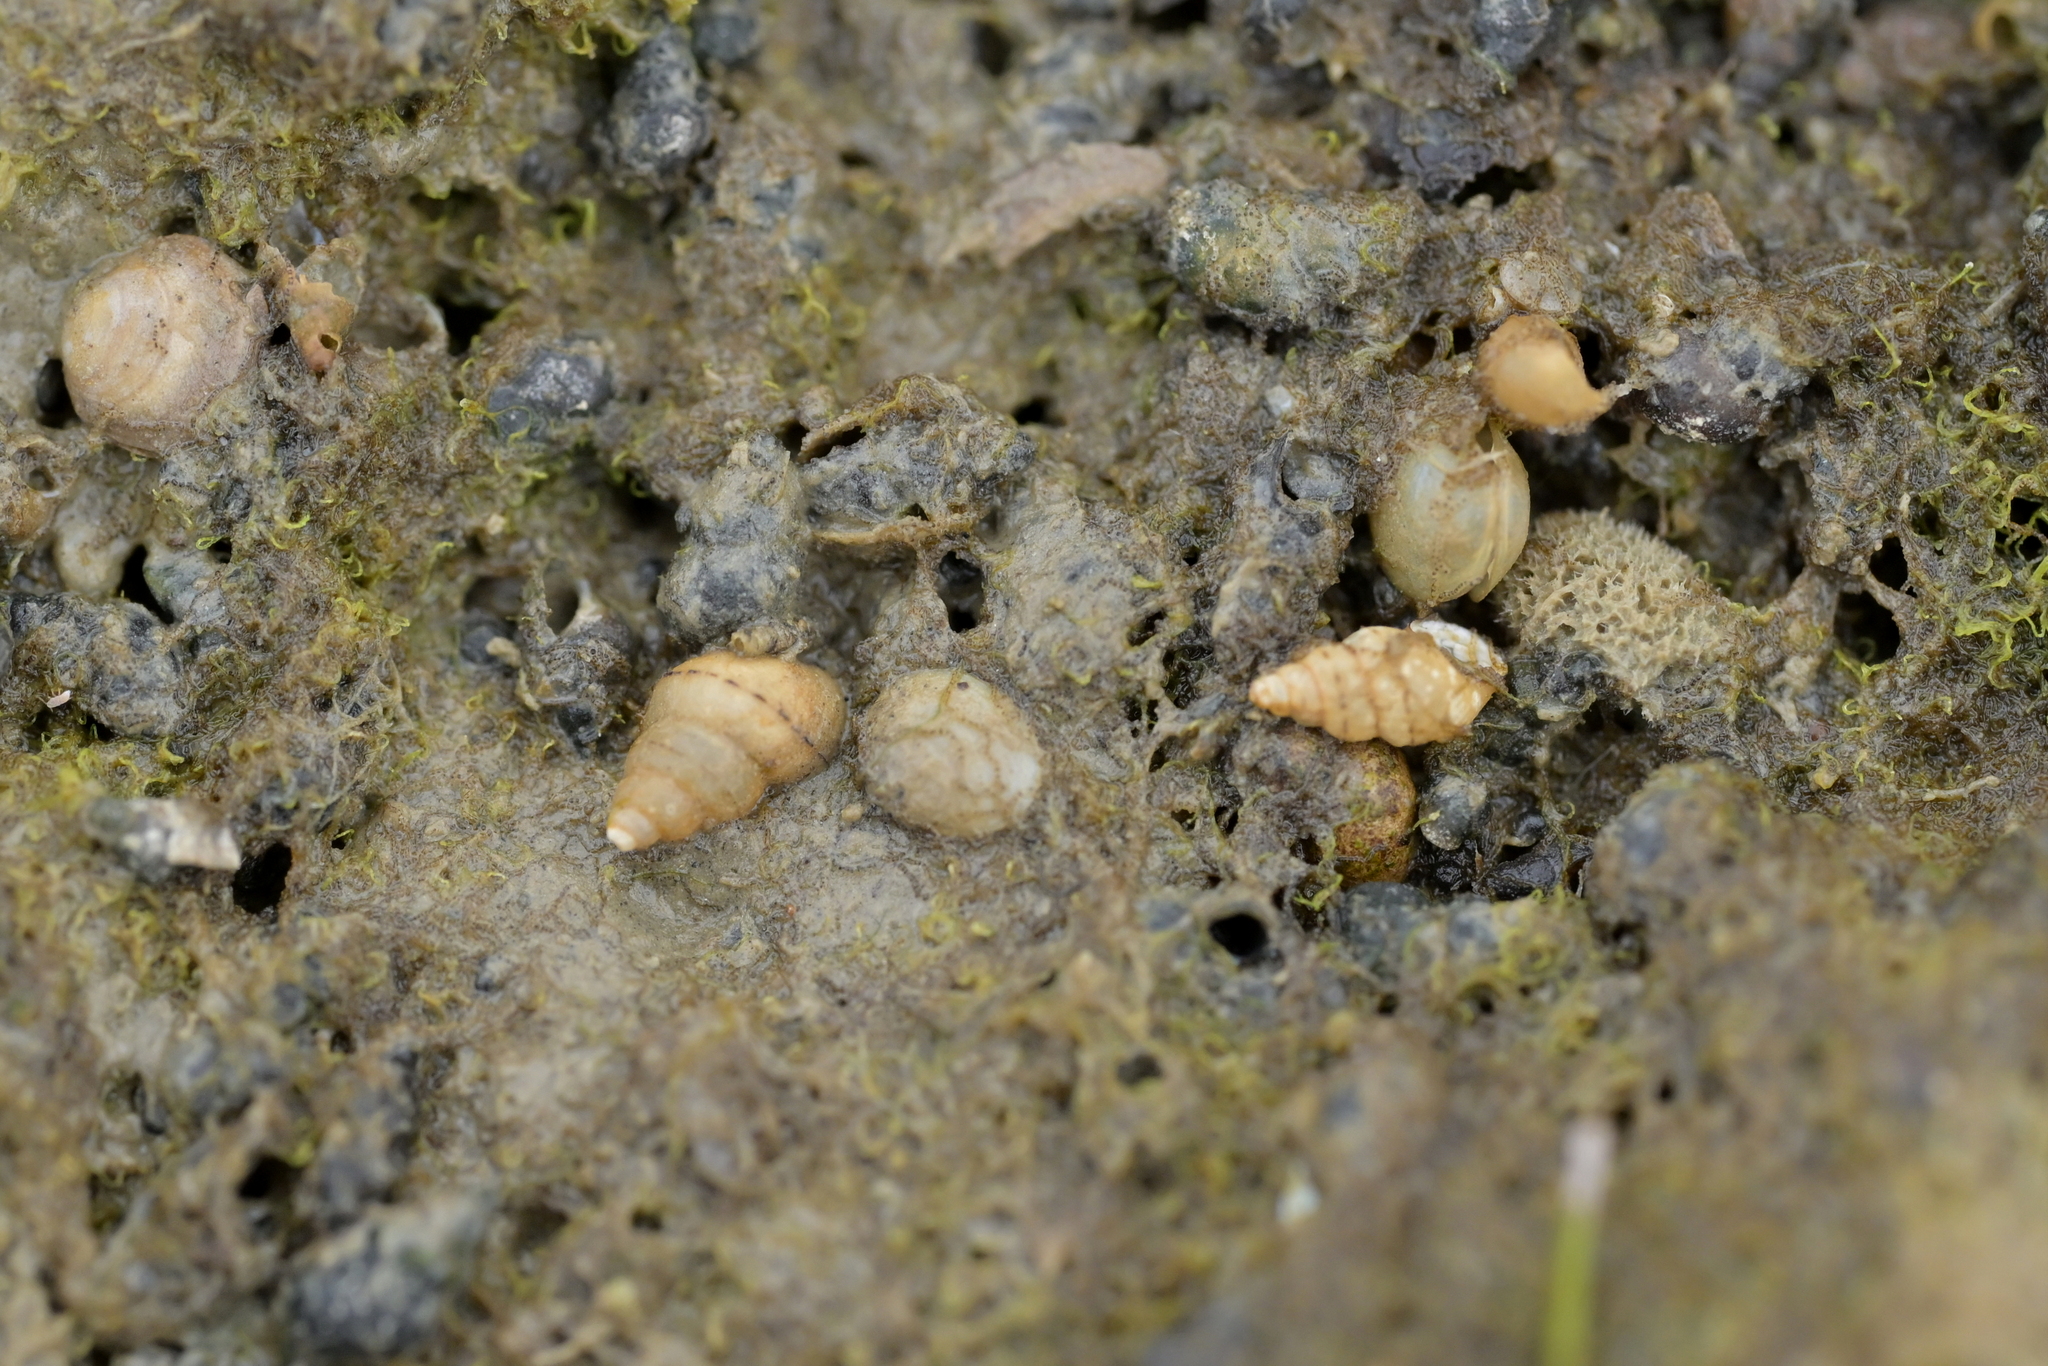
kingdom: Animalia
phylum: Mollusca
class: Gastropoda
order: Littorinimorpha
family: Tateidae
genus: Potamopyrgus
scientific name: Potamopyrgus antipodarum
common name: Jenkins' spire snail
